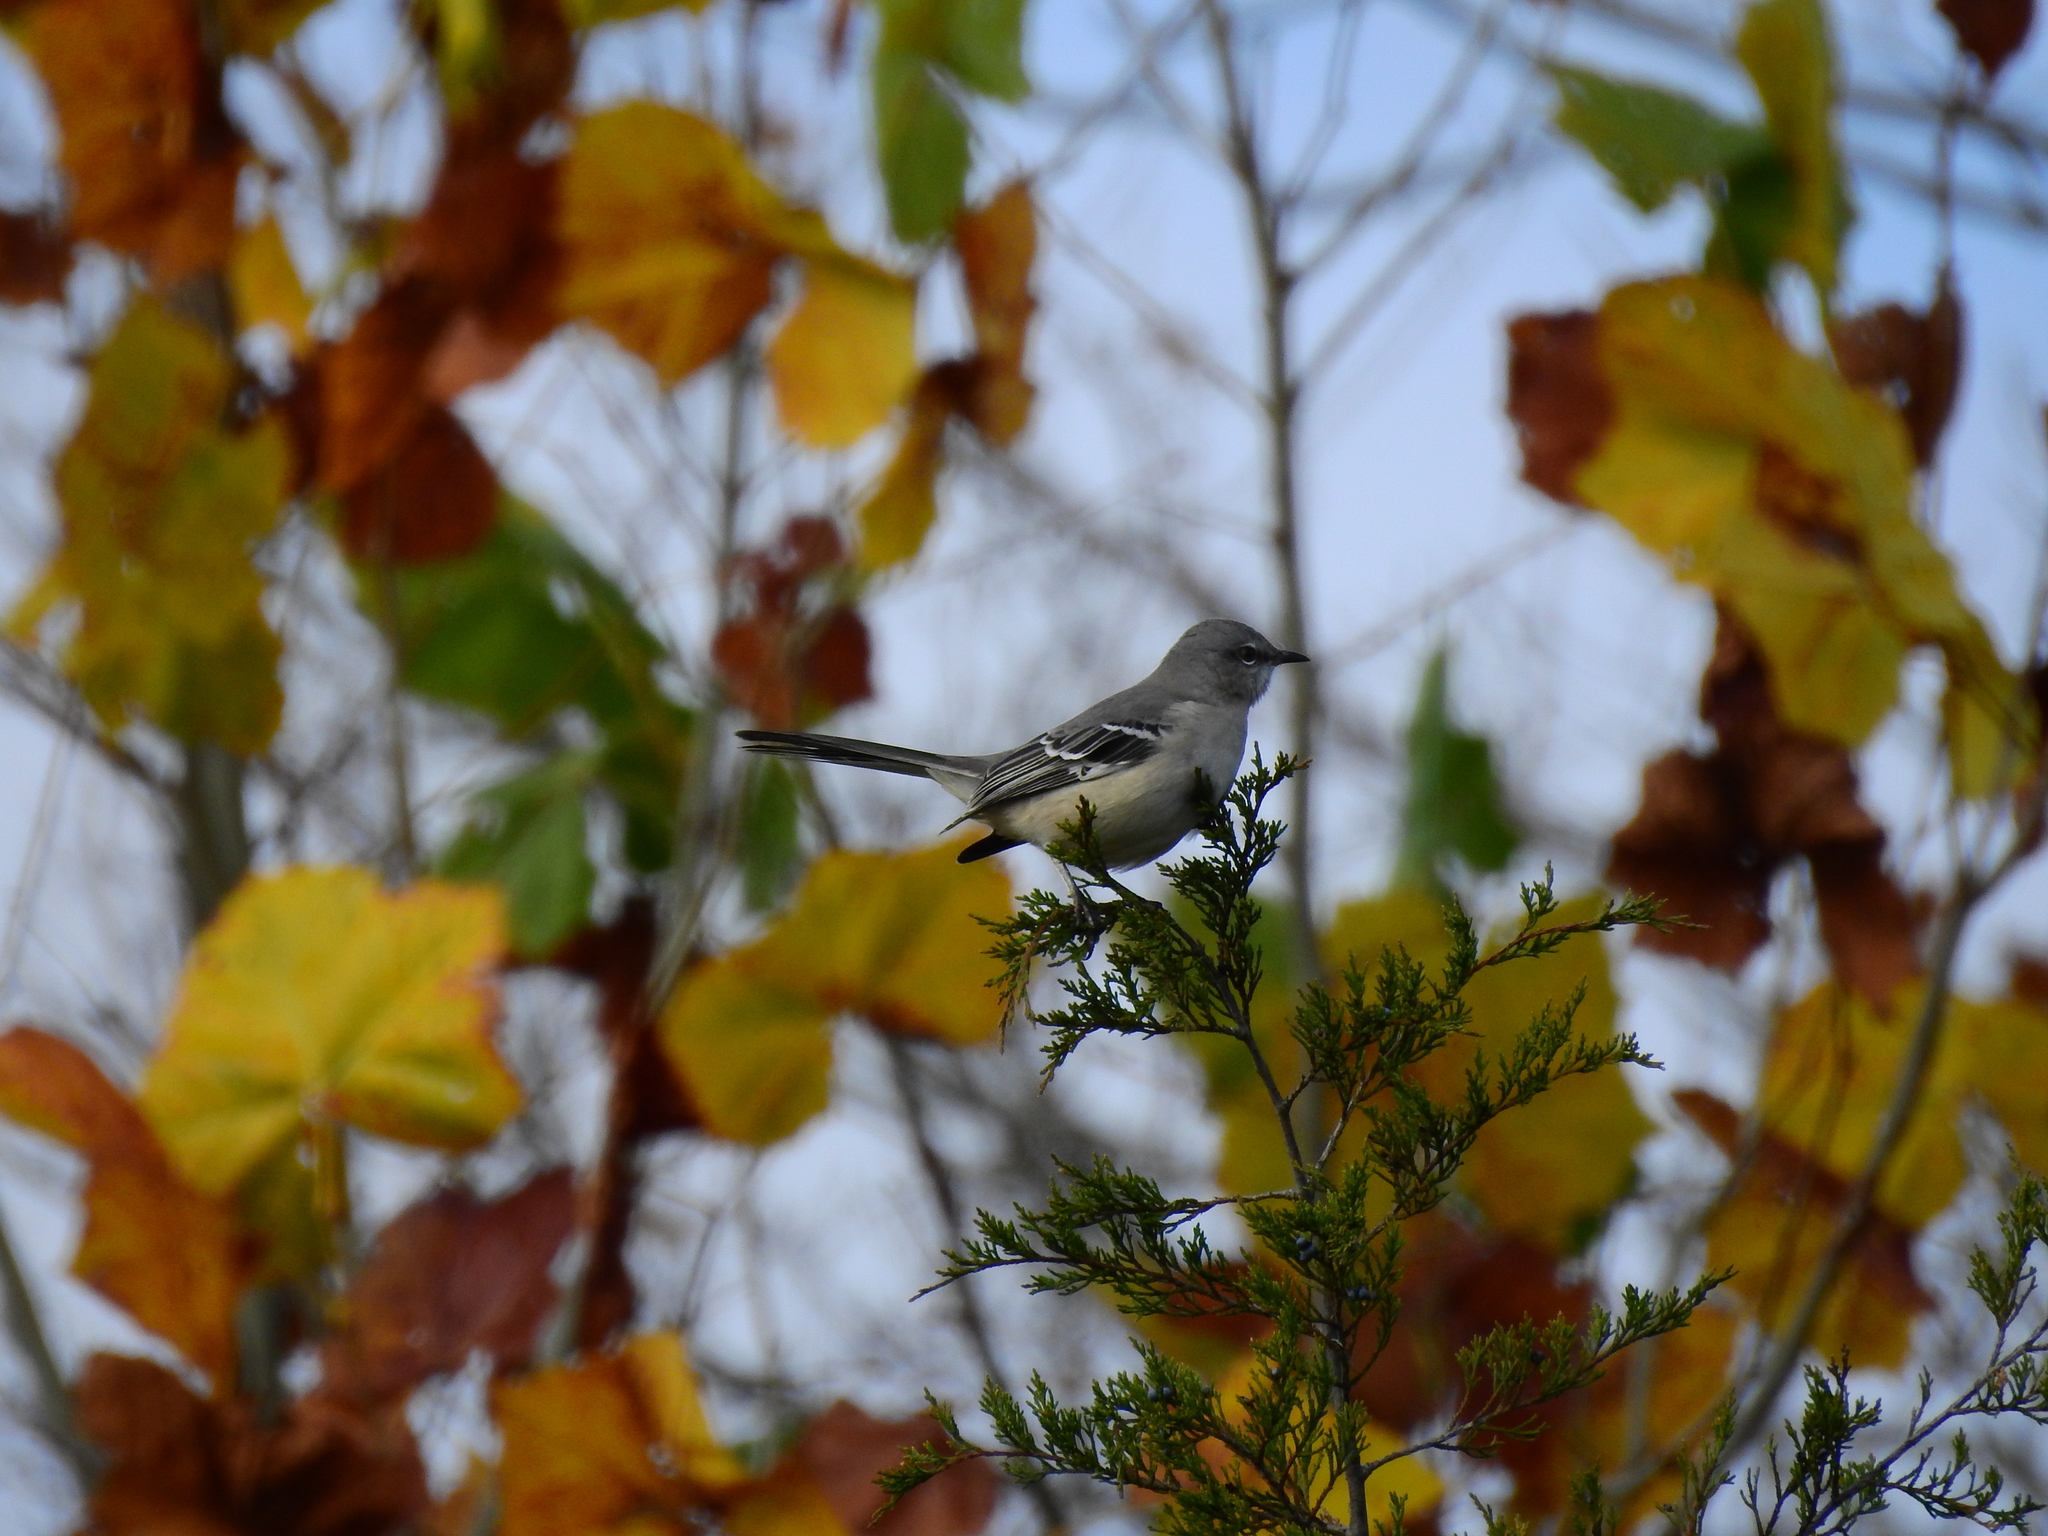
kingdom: Animalia
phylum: Chordata
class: Aves
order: Passeriformes
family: Mimidae
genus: Mimus
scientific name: Mimus polyglottos
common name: Northern mockingbird
